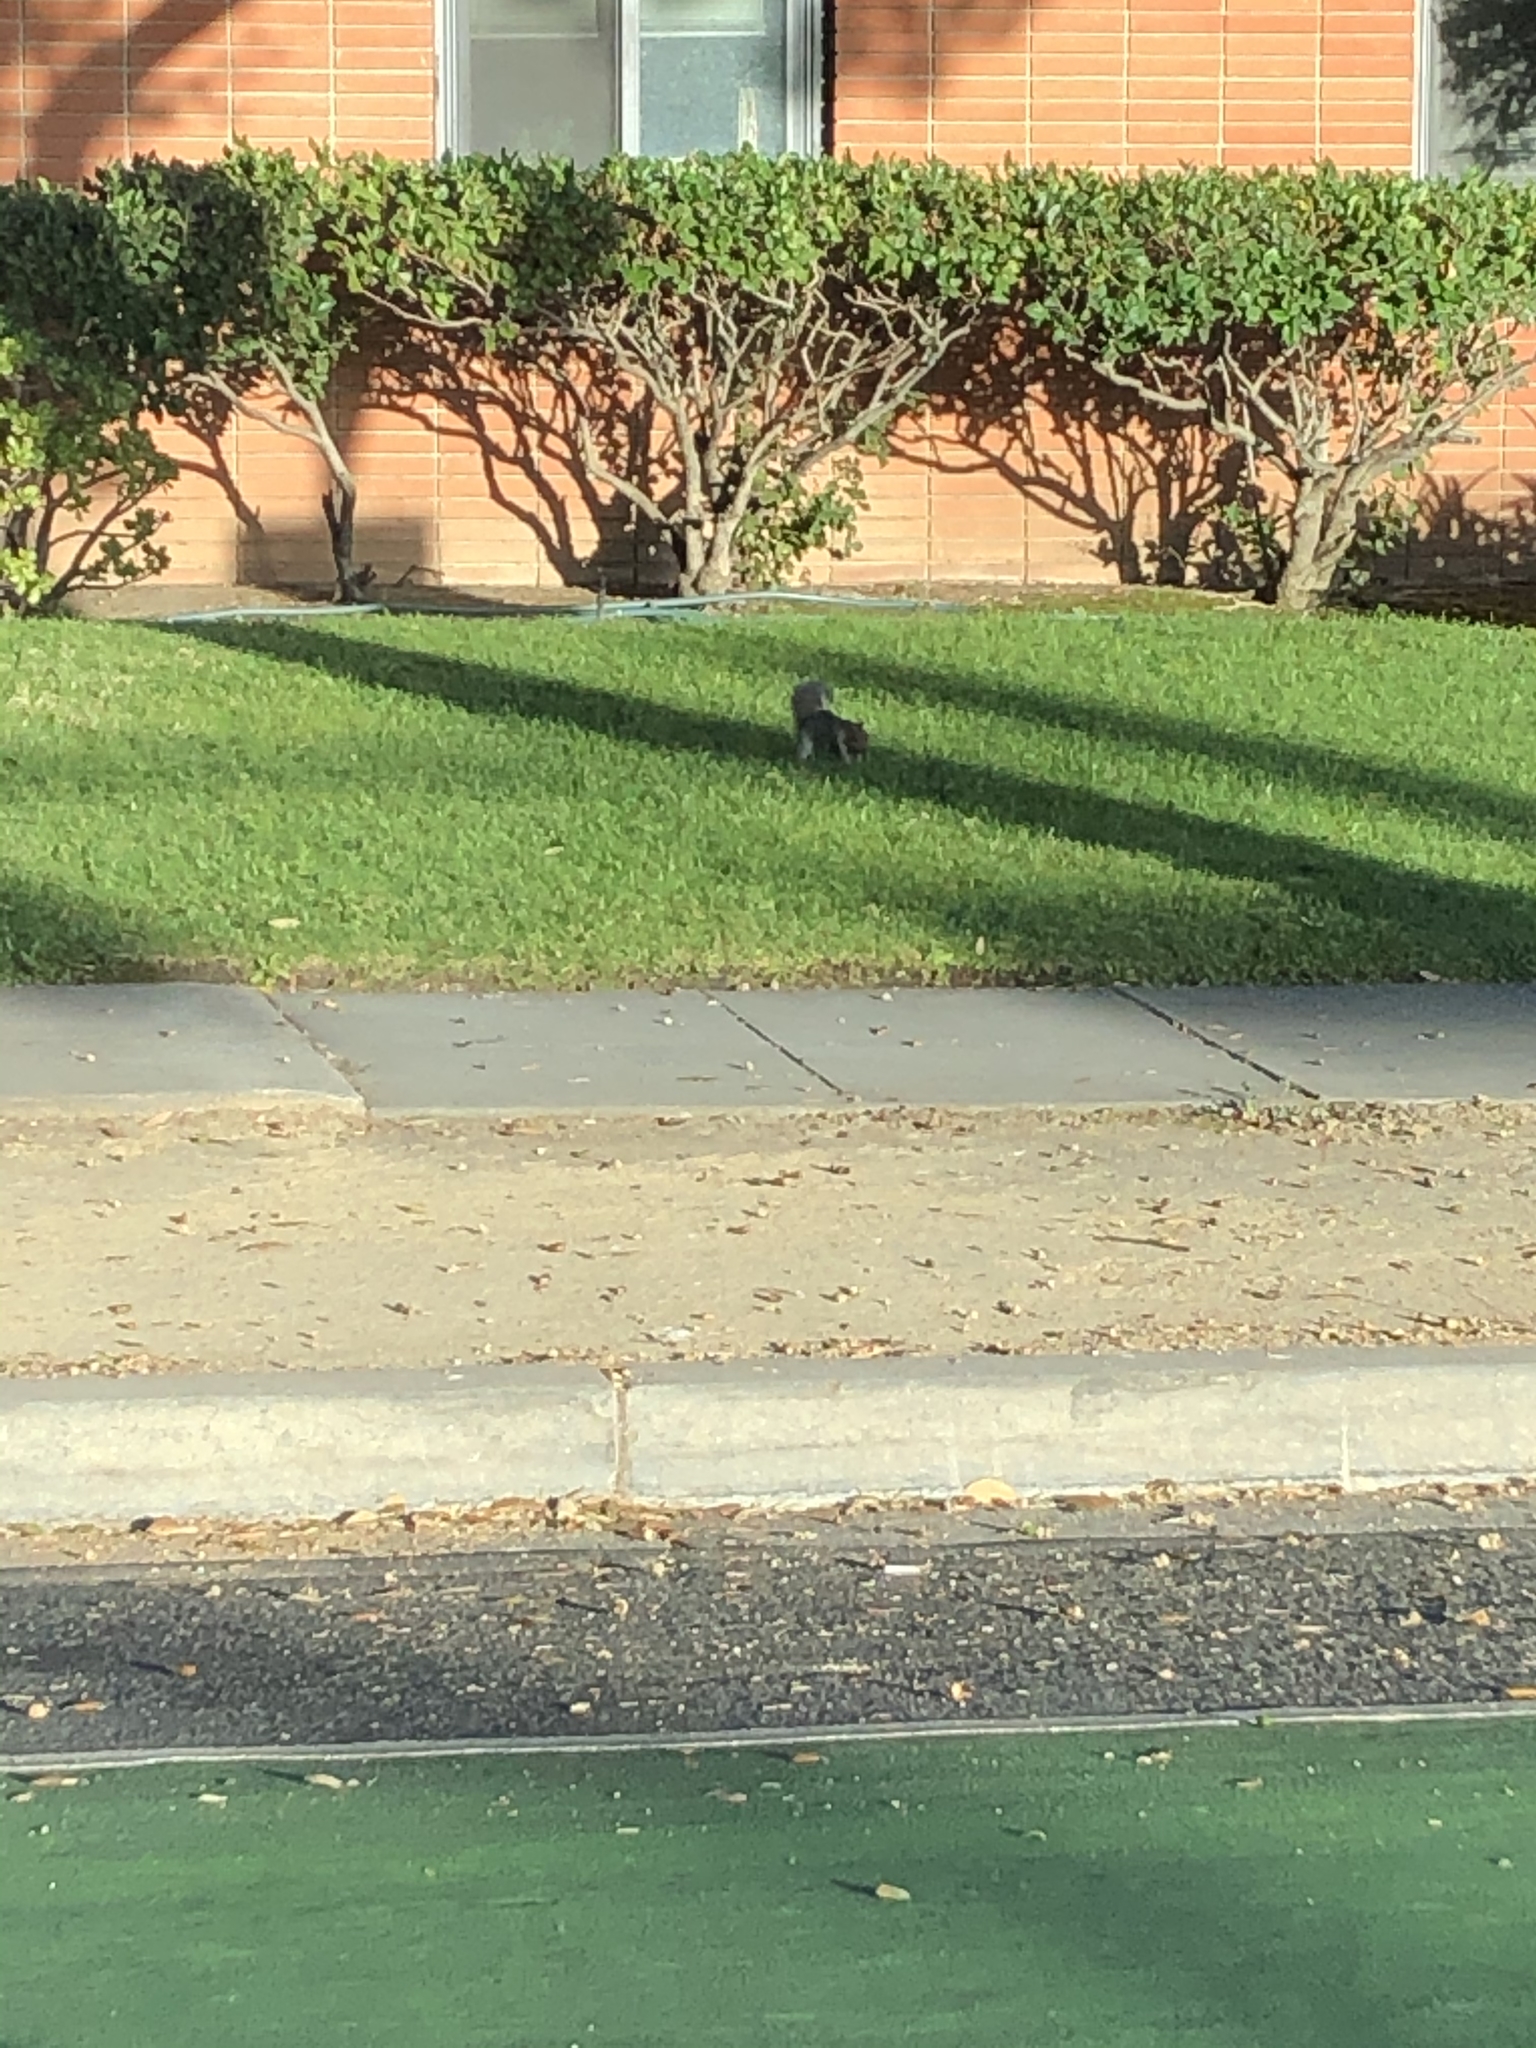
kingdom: Animalia
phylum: Chordata
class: Mammalia
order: Rodentia
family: Sciuridae
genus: Sciurus
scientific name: Sciurus carolinensis
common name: Eastern gray squirrel
